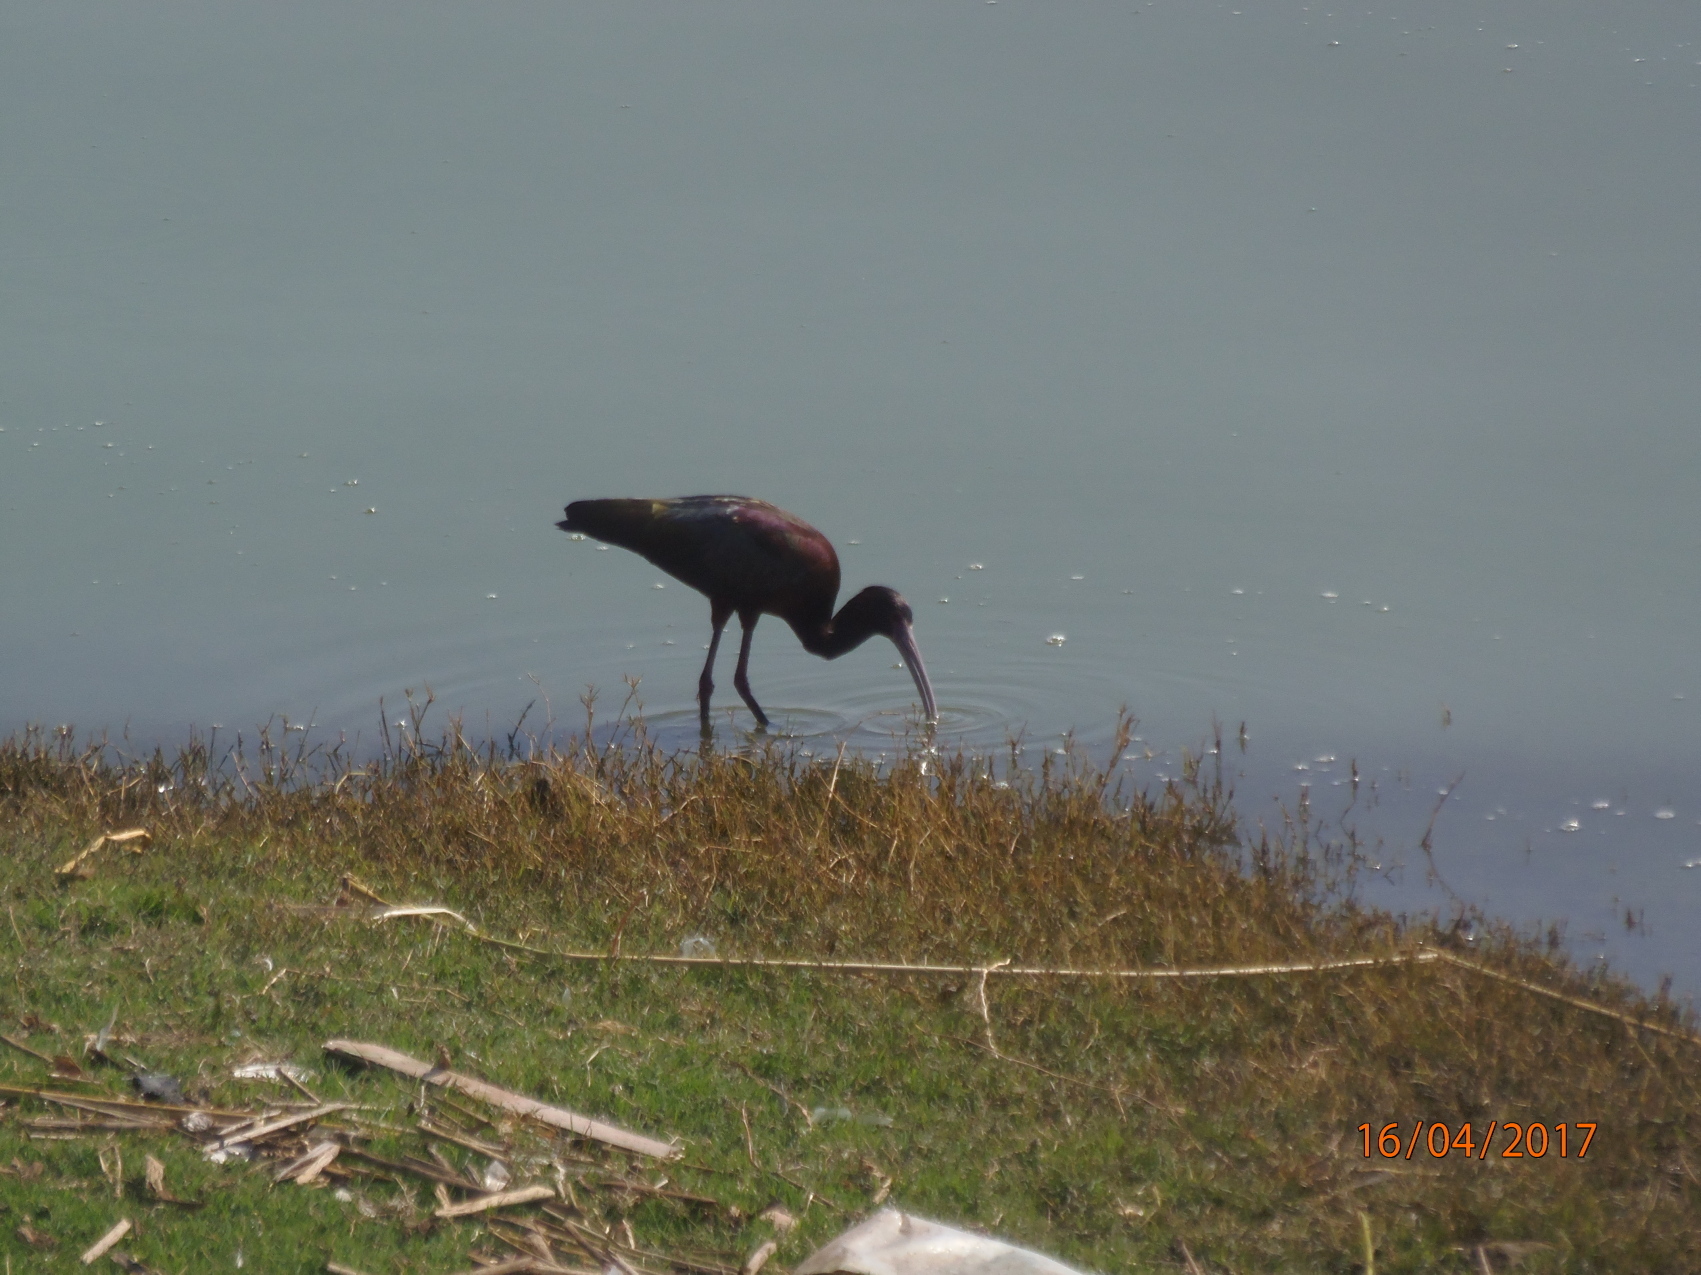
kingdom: Animalia
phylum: Chordata
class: Aves
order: Pelecaniformes
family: Threskiornithidae
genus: Plegadis
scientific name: Plegadis chihi
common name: White-faced ibis
